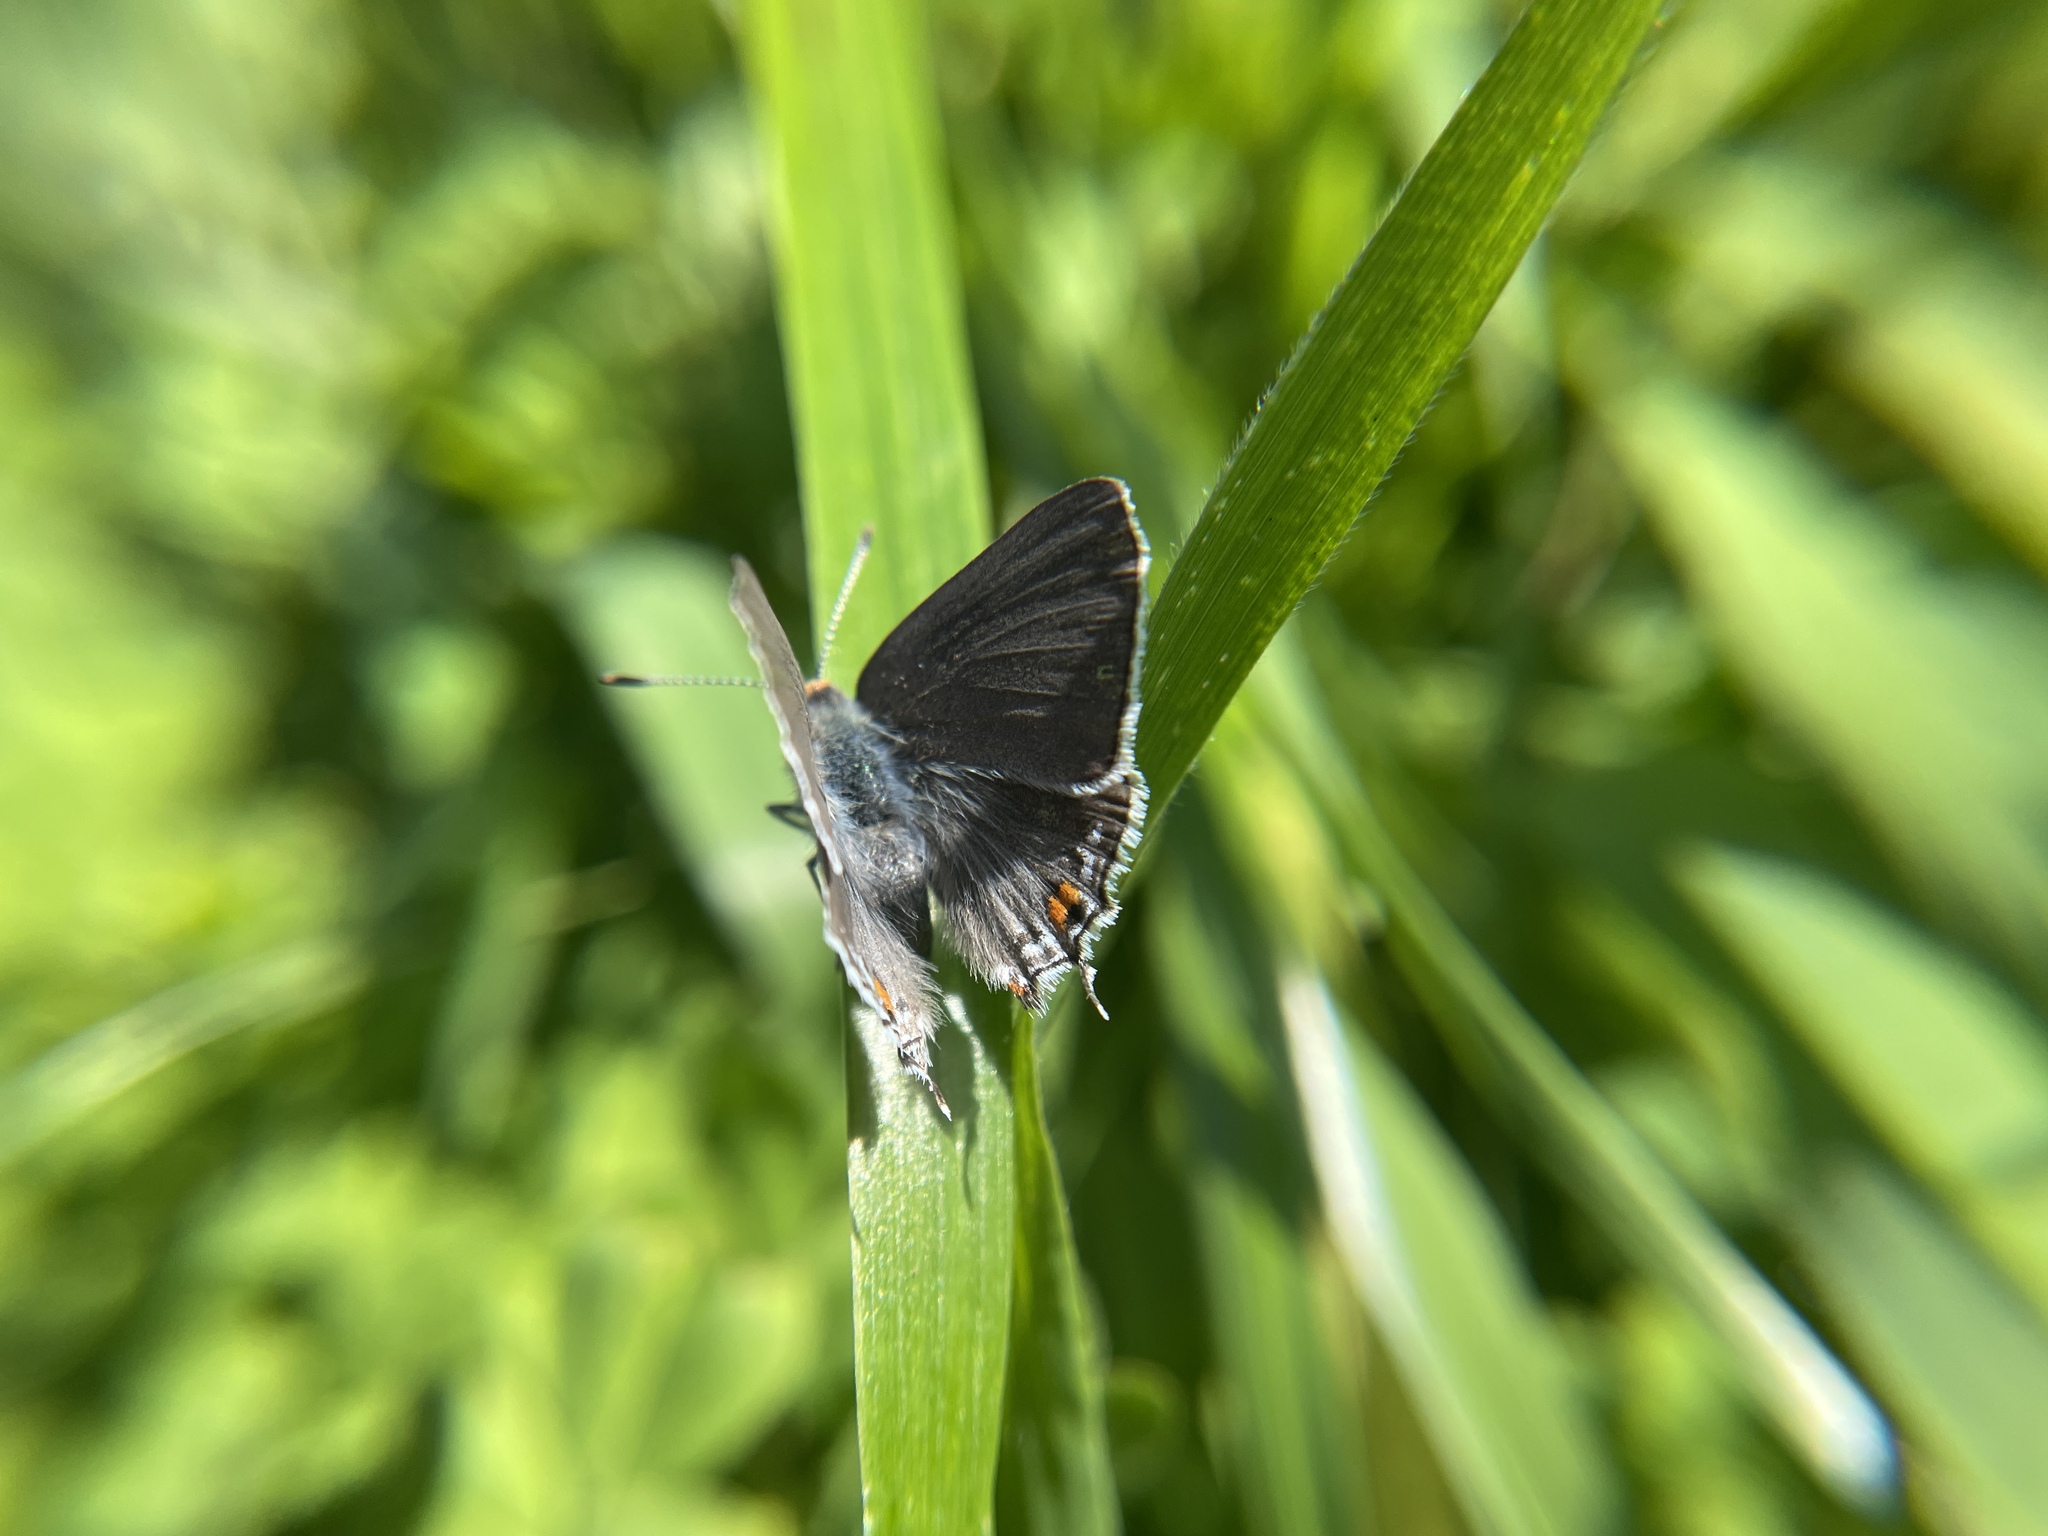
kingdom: Animalia
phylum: Arthropoda
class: Insecta
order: Lepidoptera
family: Lycaenidae
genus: Strymon
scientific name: Strymon melinus
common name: Gray hairstreak
